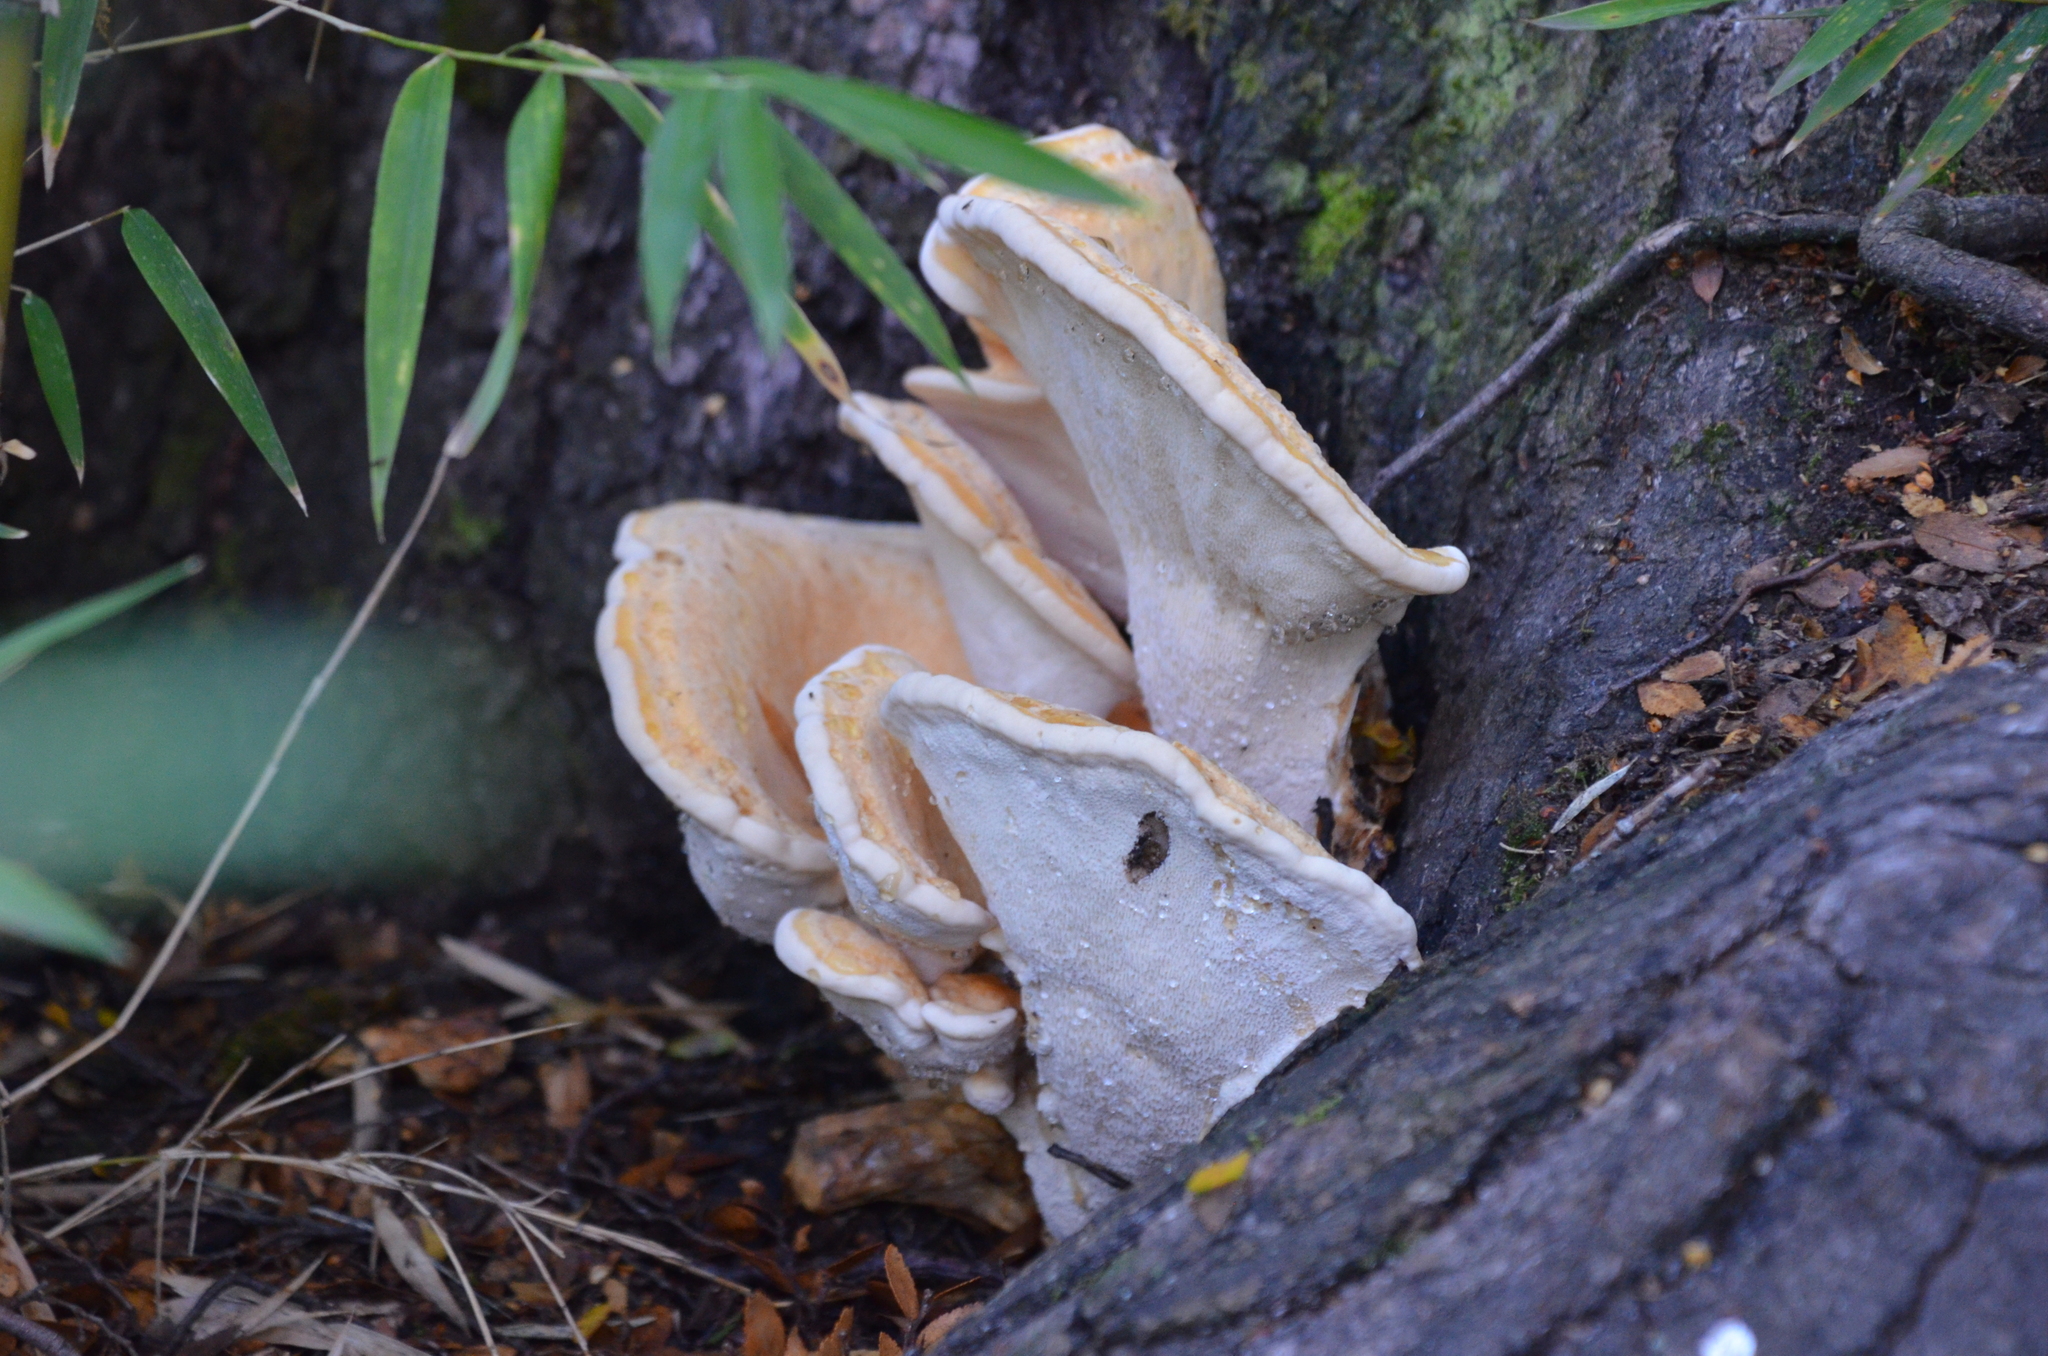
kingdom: Fungi
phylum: Basidiomycota
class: Agaricomycetes
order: Russulales
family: Bondarzewiaceae
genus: Bondarzewia
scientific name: Bondarzewia guaitecasensis
